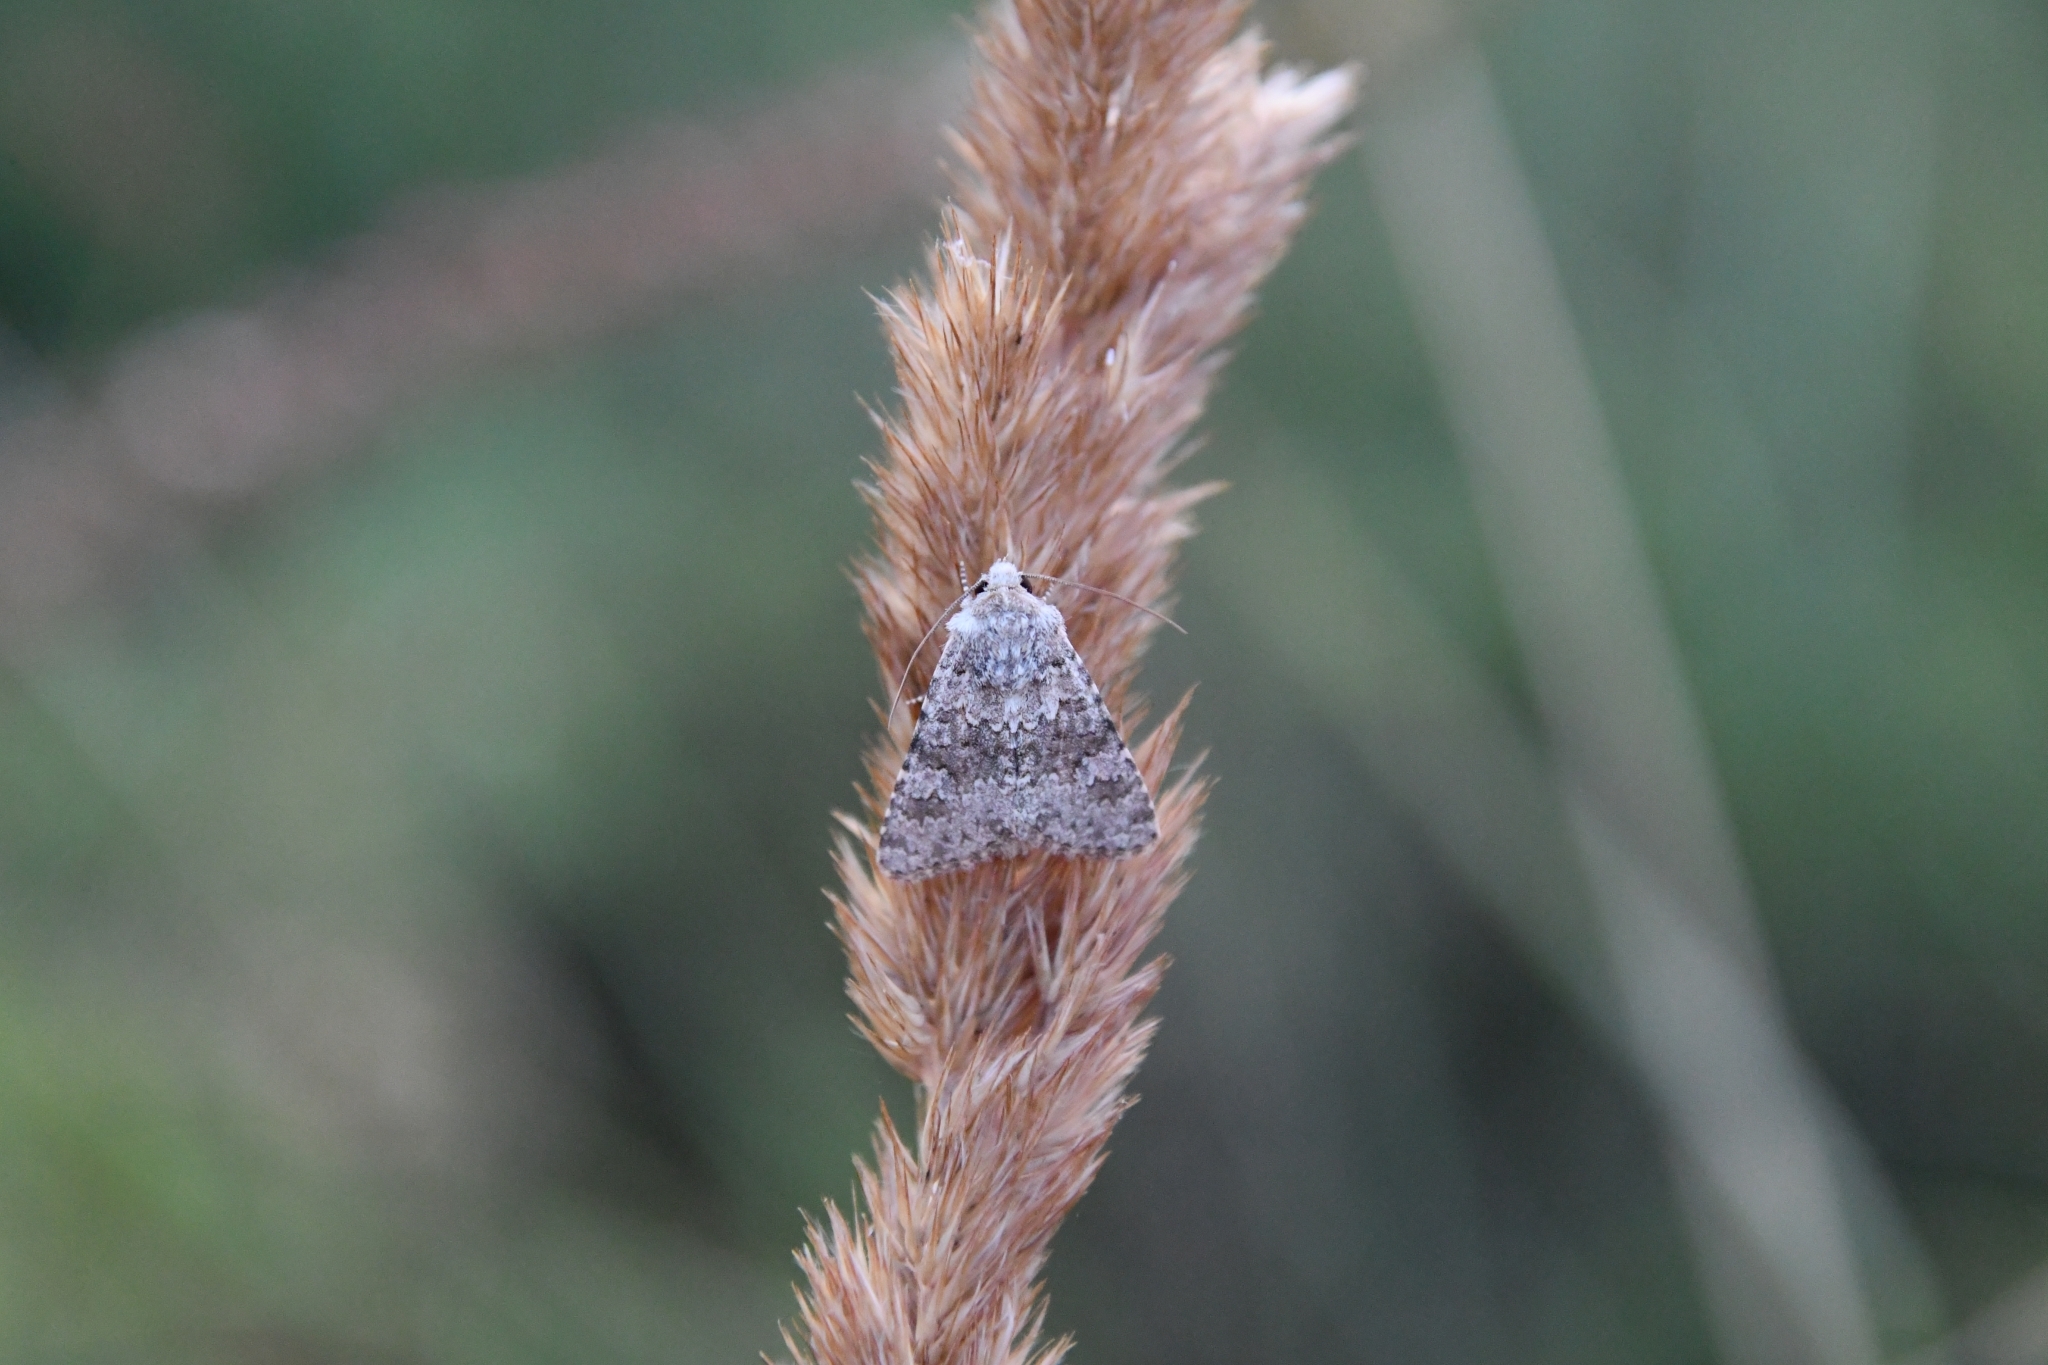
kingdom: Animalia
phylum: Arthropoda
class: Insecta
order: Lepidoptera
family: Noctuidae
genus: Hecatera
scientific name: Hecatera dysodea
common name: Small ranunculus
